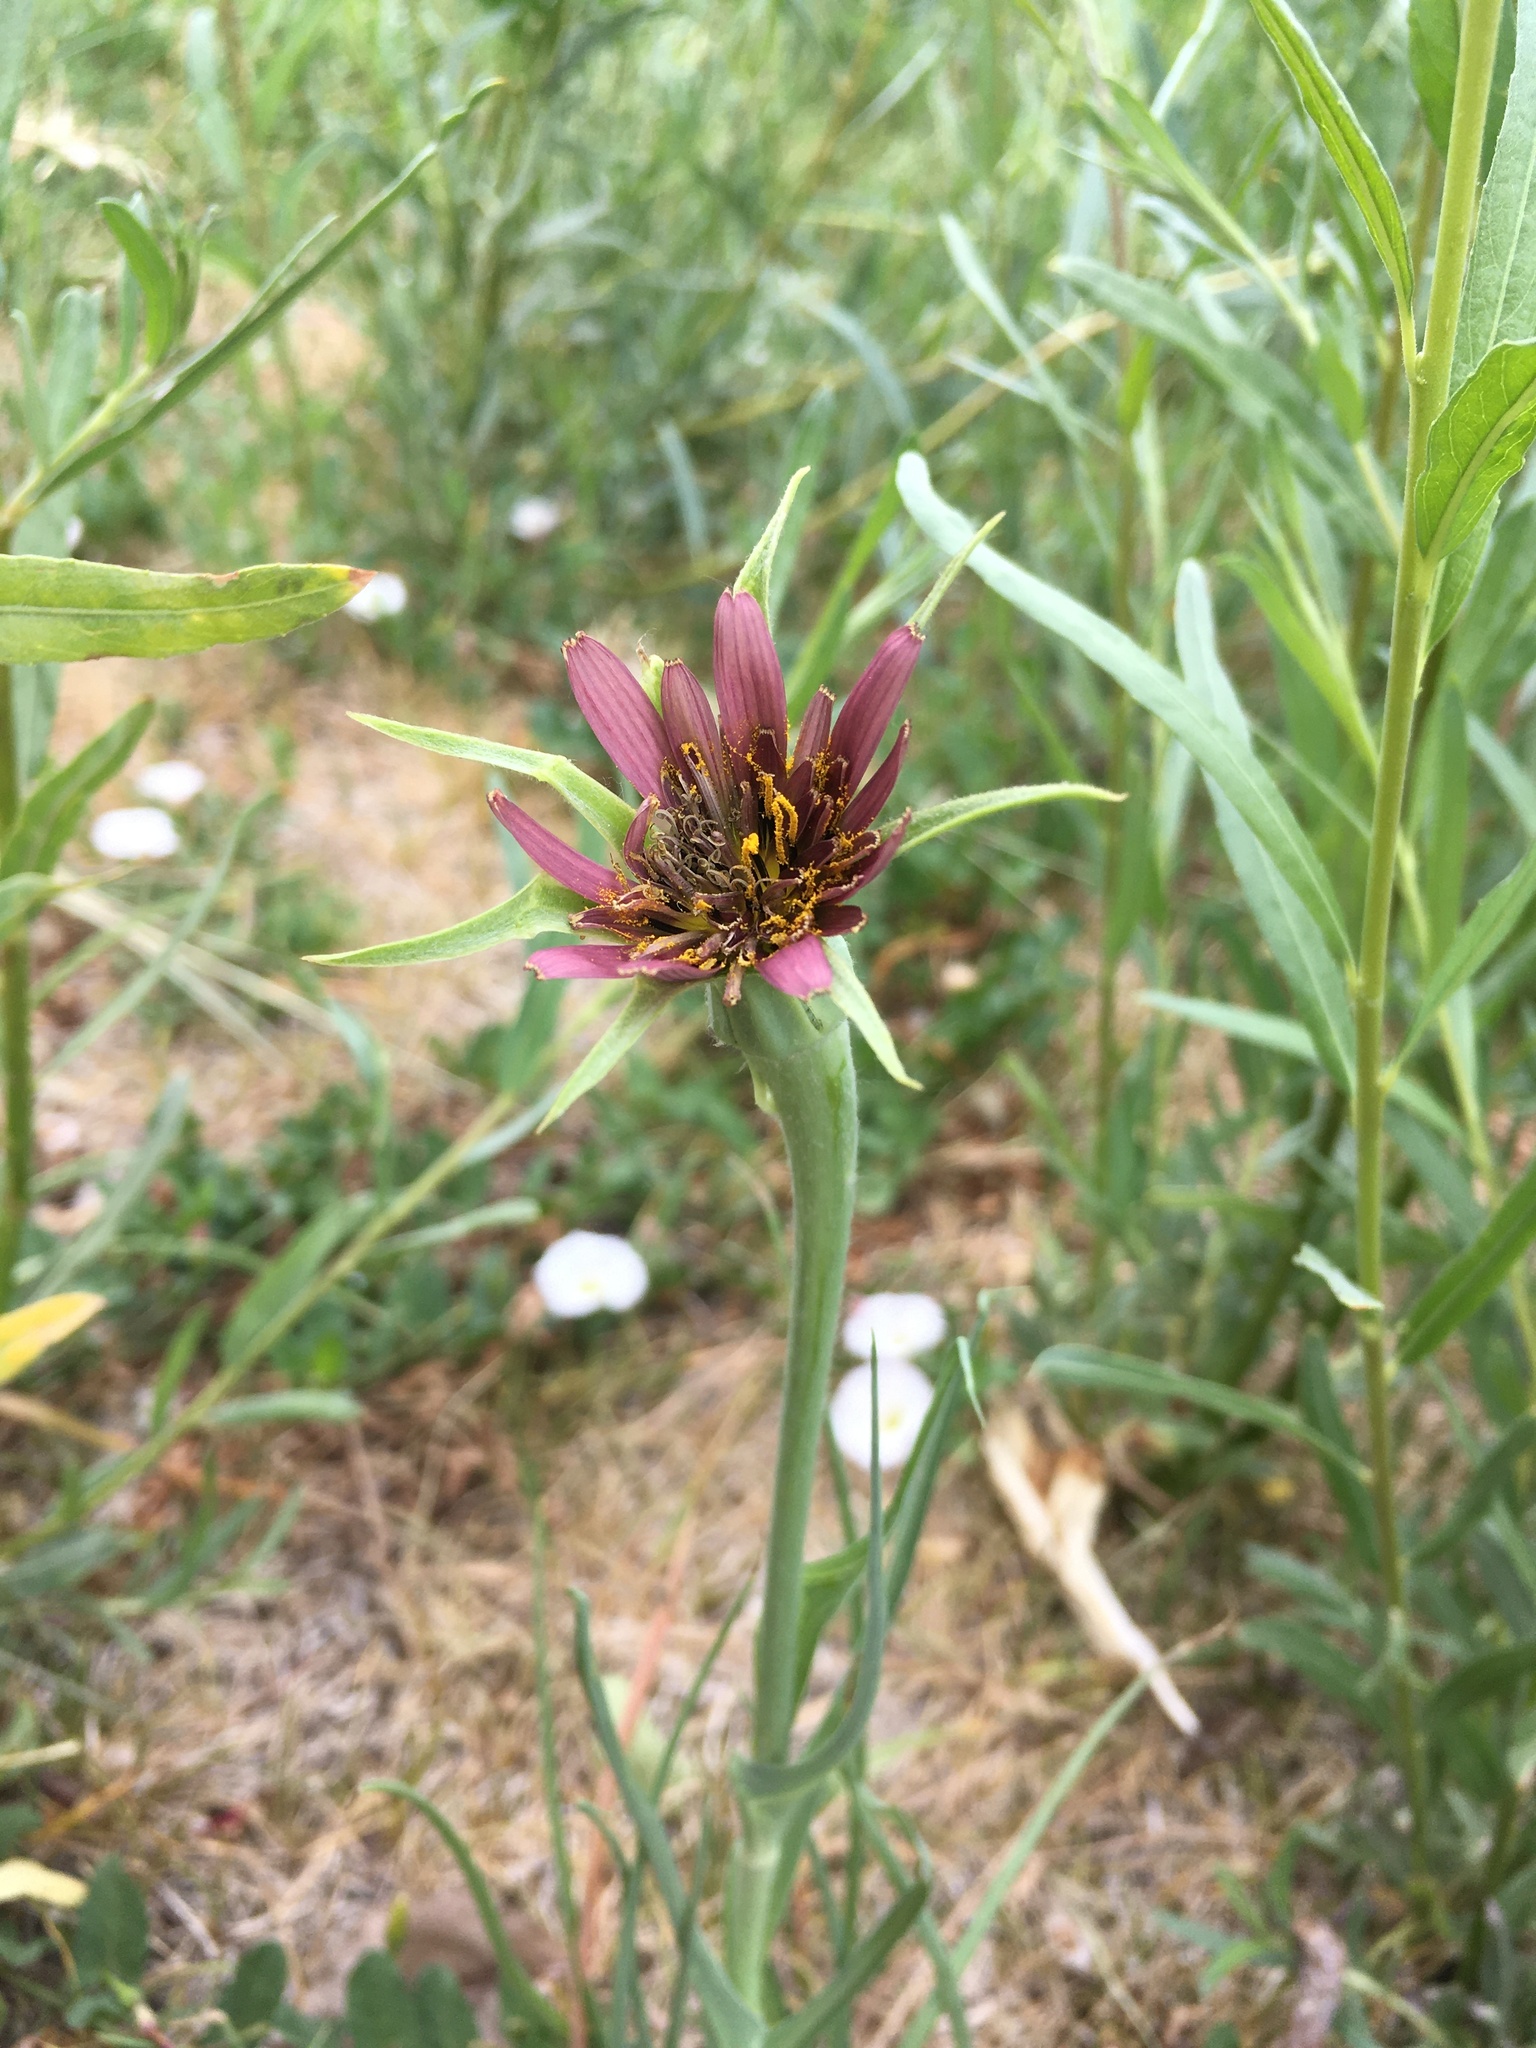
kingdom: Plantae
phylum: Tracheophyta
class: Magnoliopsida
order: Asterales
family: Asteraceae
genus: Tragopogon
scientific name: Tragopogon porrifolius
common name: Salsify
